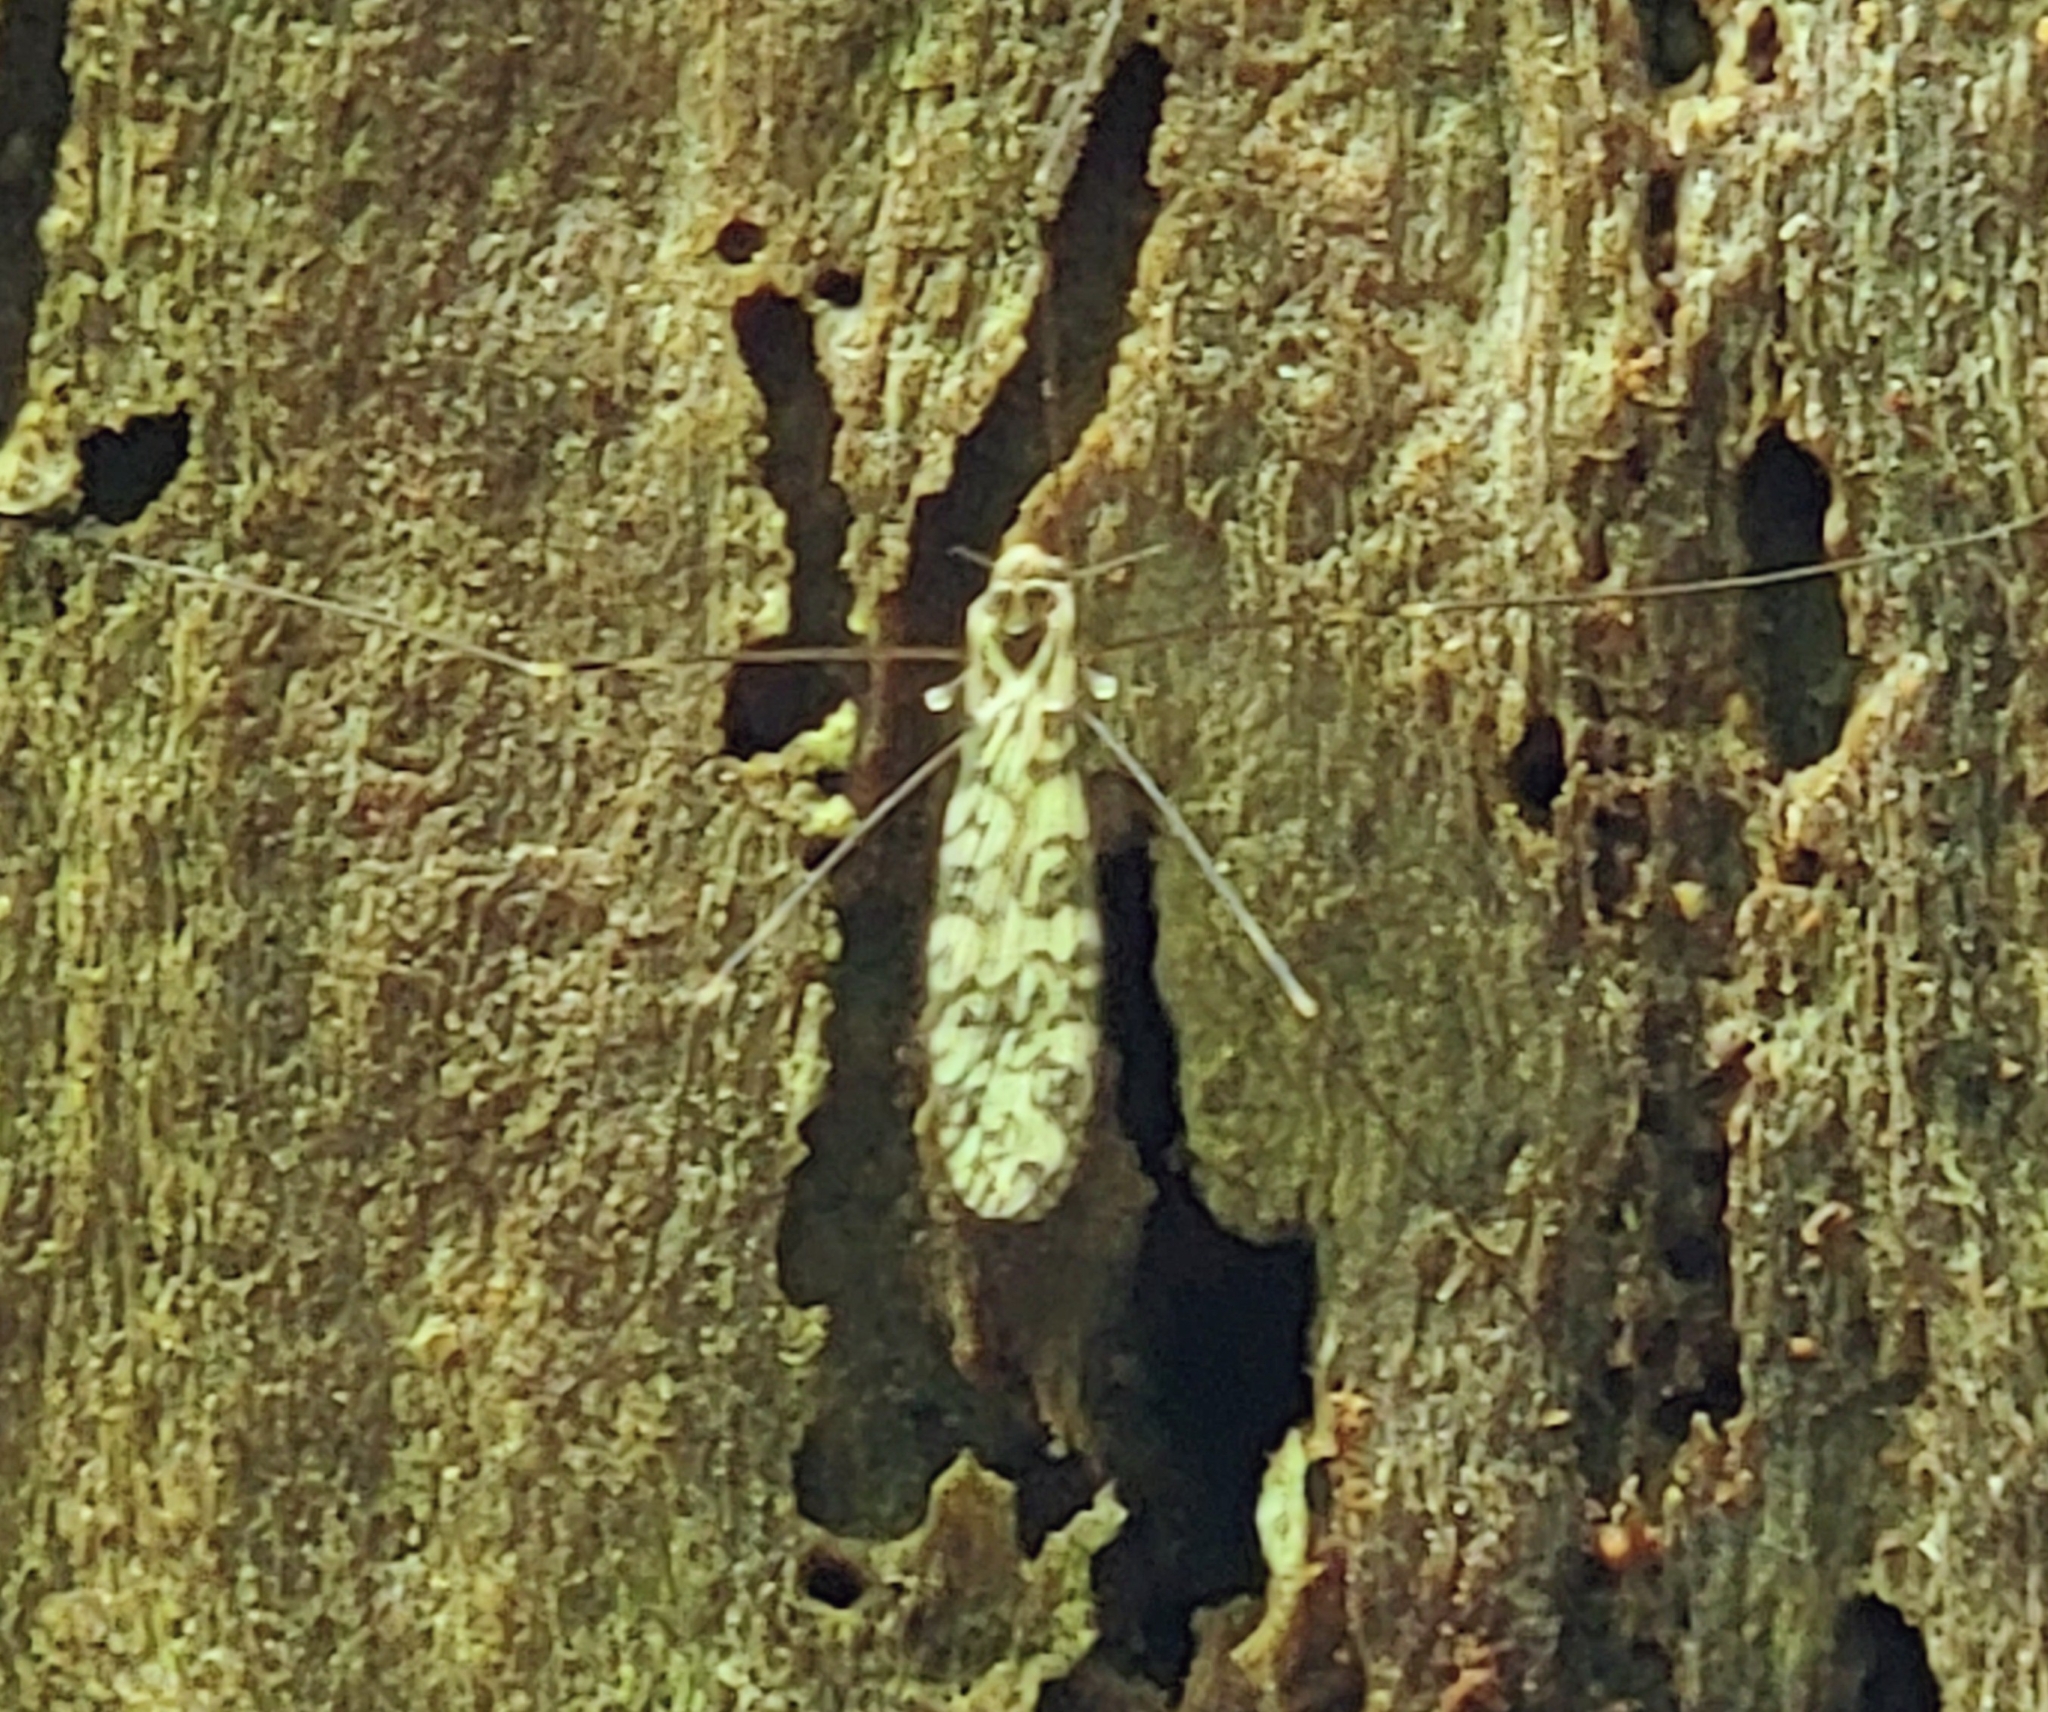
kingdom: Animalia
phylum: Arthropoda
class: Insecta
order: Diptera
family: Limoniidae
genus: Discobola
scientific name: Discobola annulata
